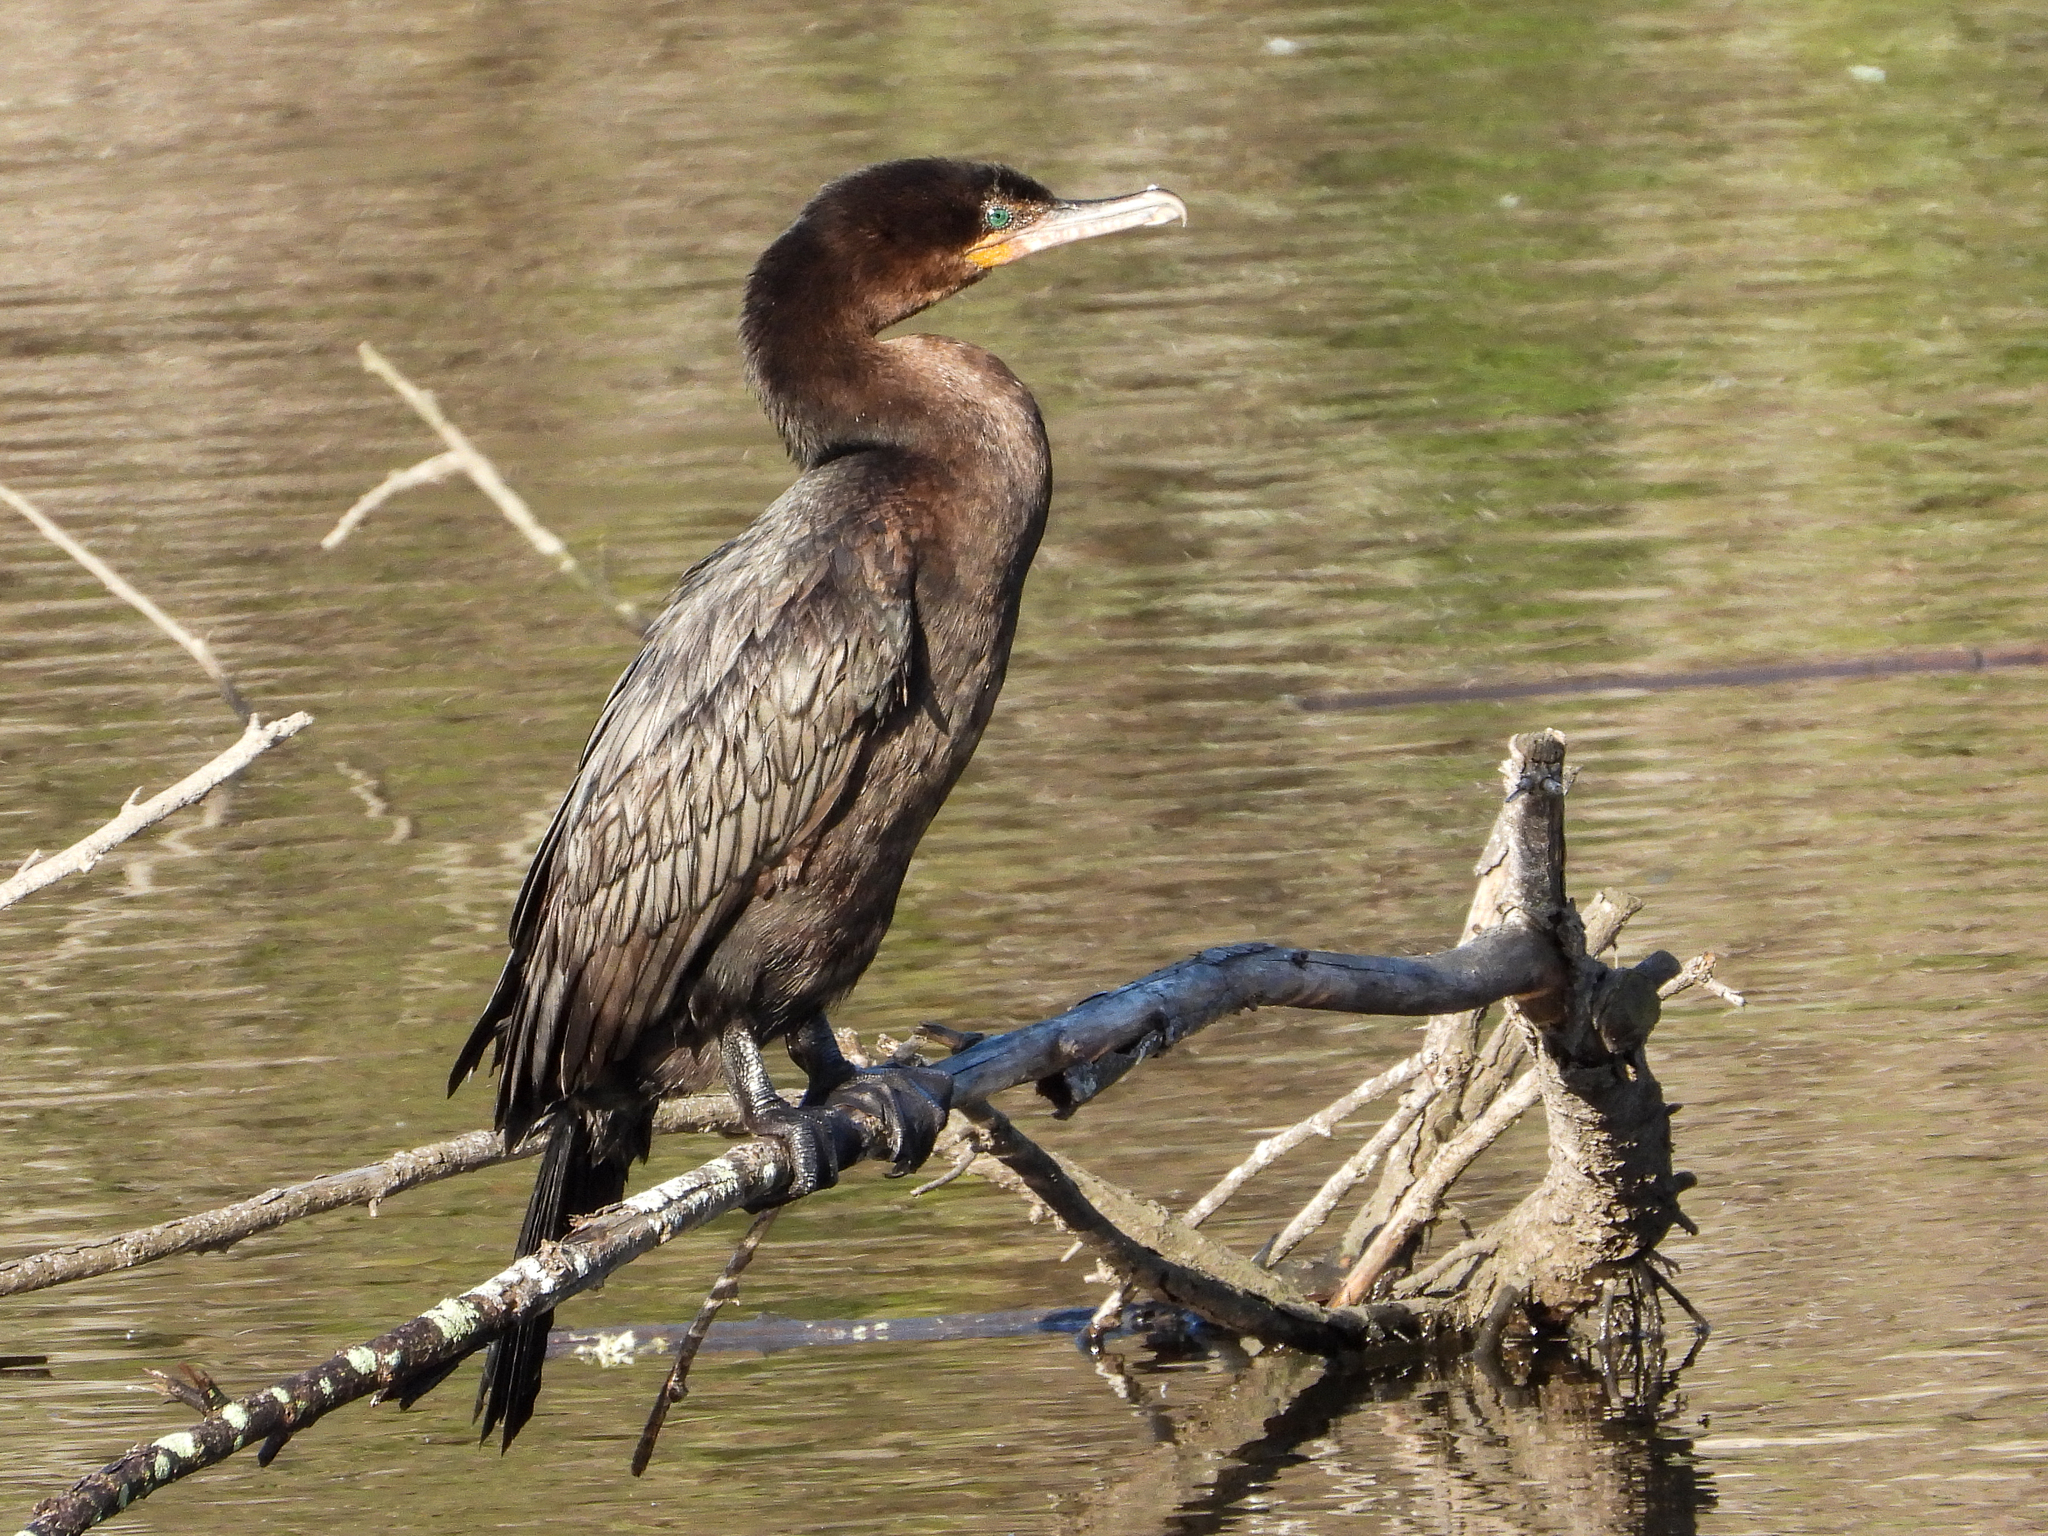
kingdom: Animalia
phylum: Chordata
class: Aves
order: Suliformes
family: Phalacrocoracidae
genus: Phalacrocorax
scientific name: Phalacrocorax brasilianus
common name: Neotropic cormorant
